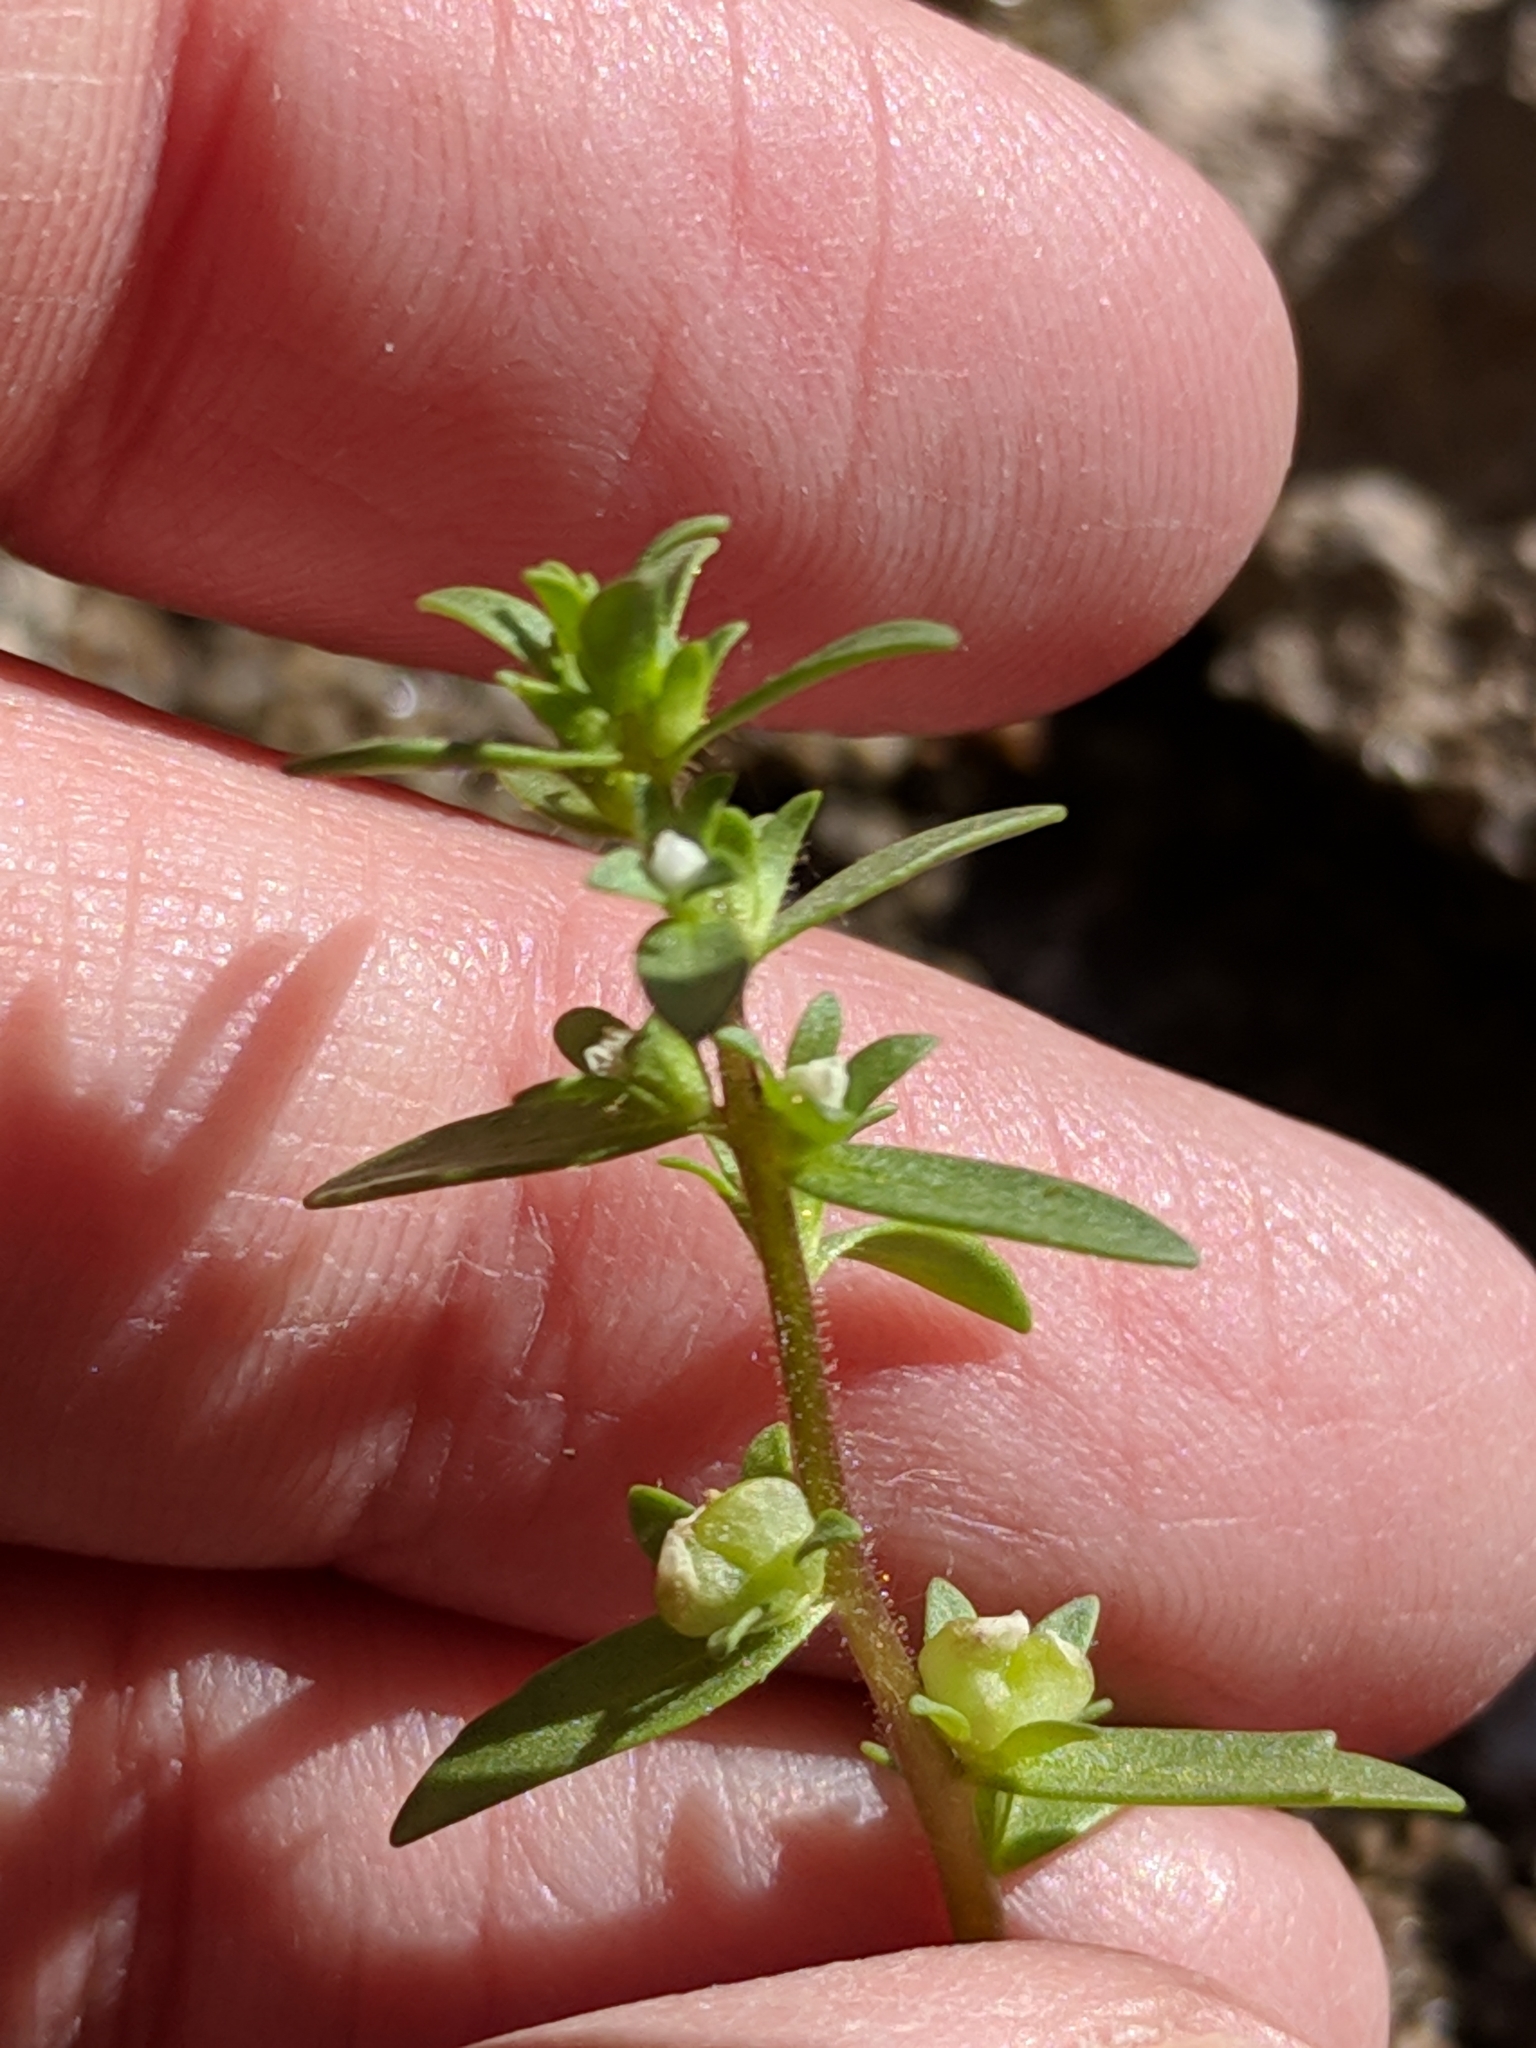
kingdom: Plantae
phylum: Tracheophyta
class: Magnoliopsida
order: Lamiales
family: Plantaginaceae
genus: Veronica
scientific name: Veronica peregrina
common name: Neckweed
